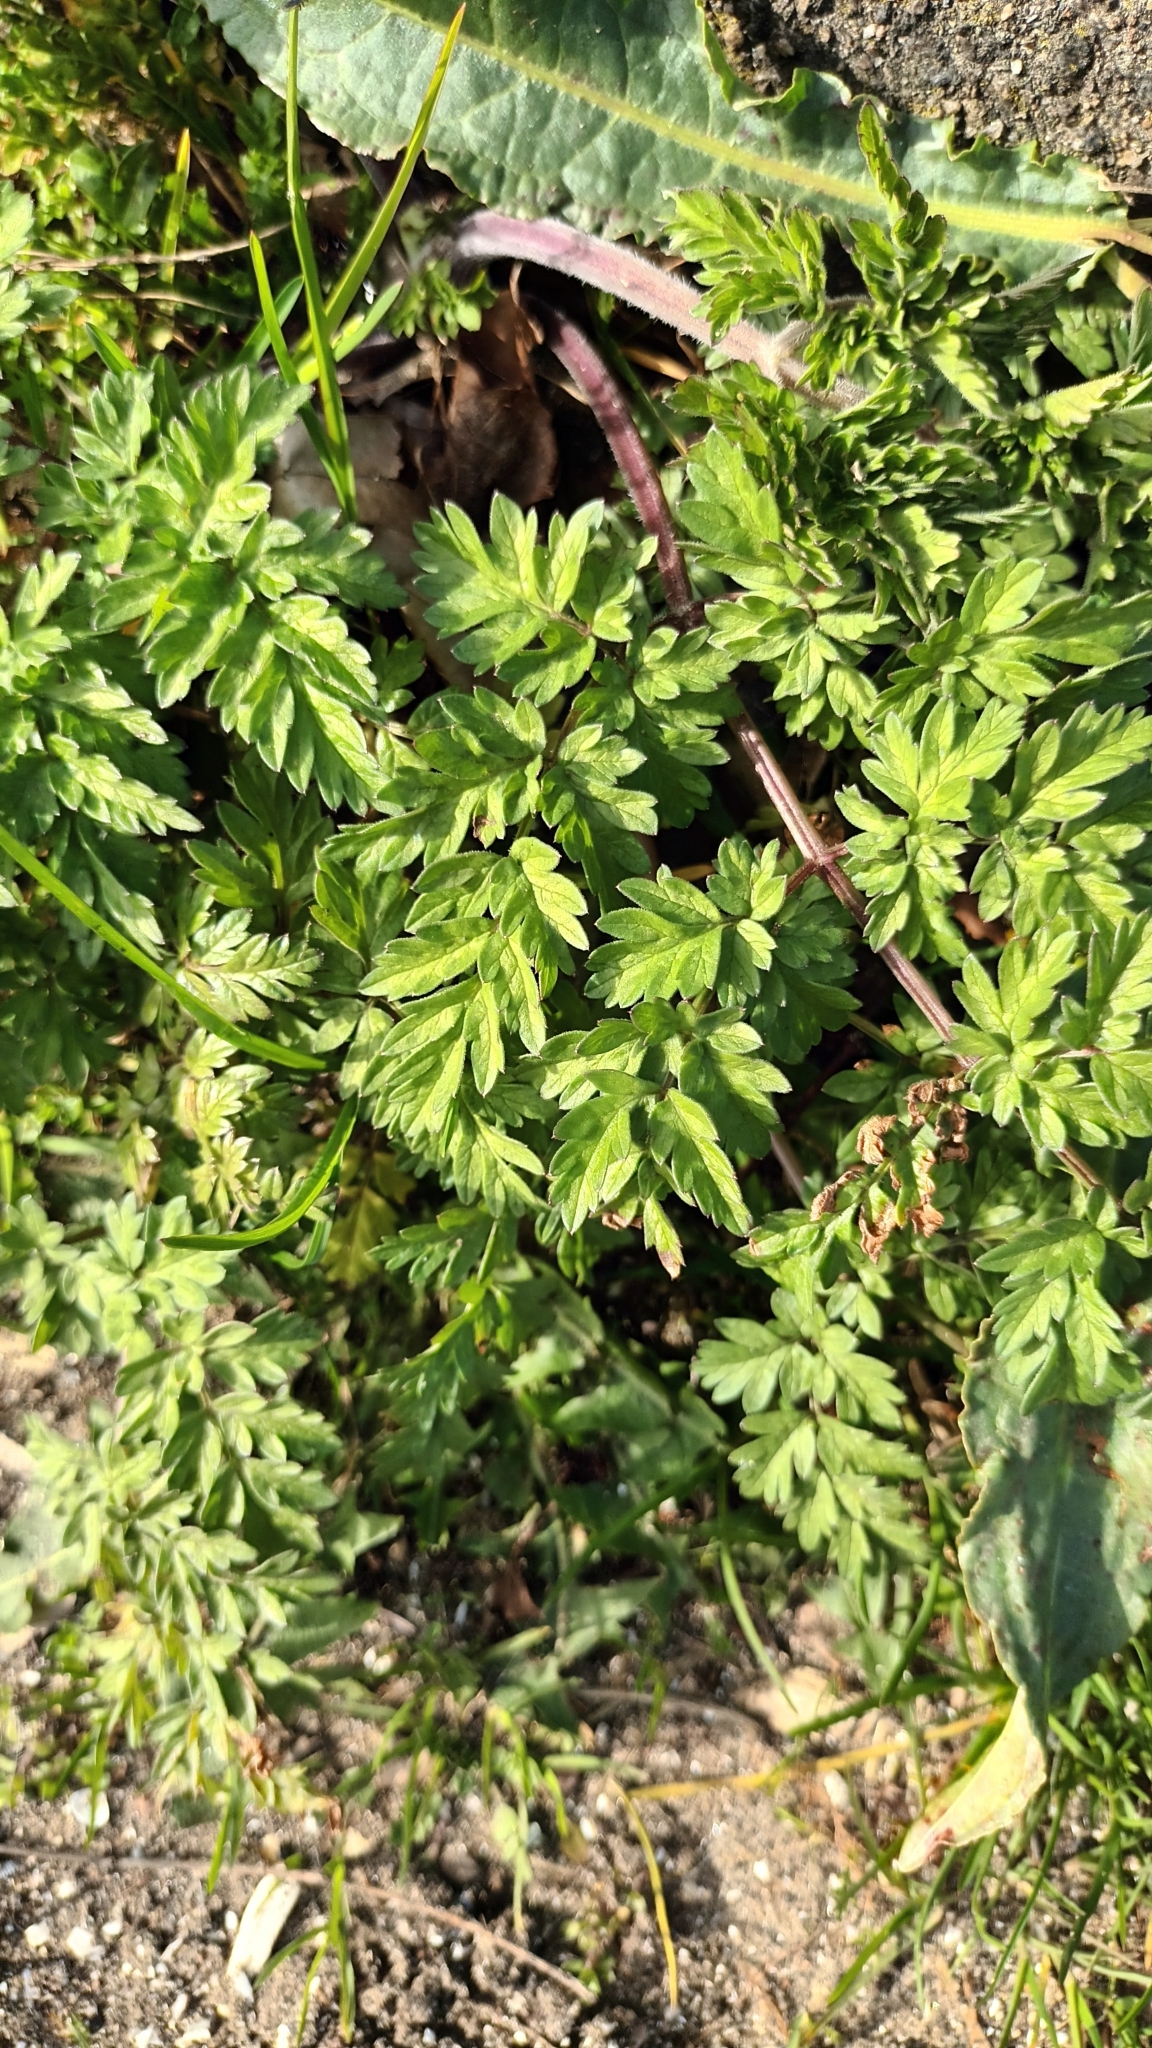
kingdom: Plantae
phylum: Tracheophyta
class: Magnoliopsida
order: Apiales
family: Apiaceae
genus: Anthriscus
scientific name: Anthriscus sylvestris
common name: Cow parsley
